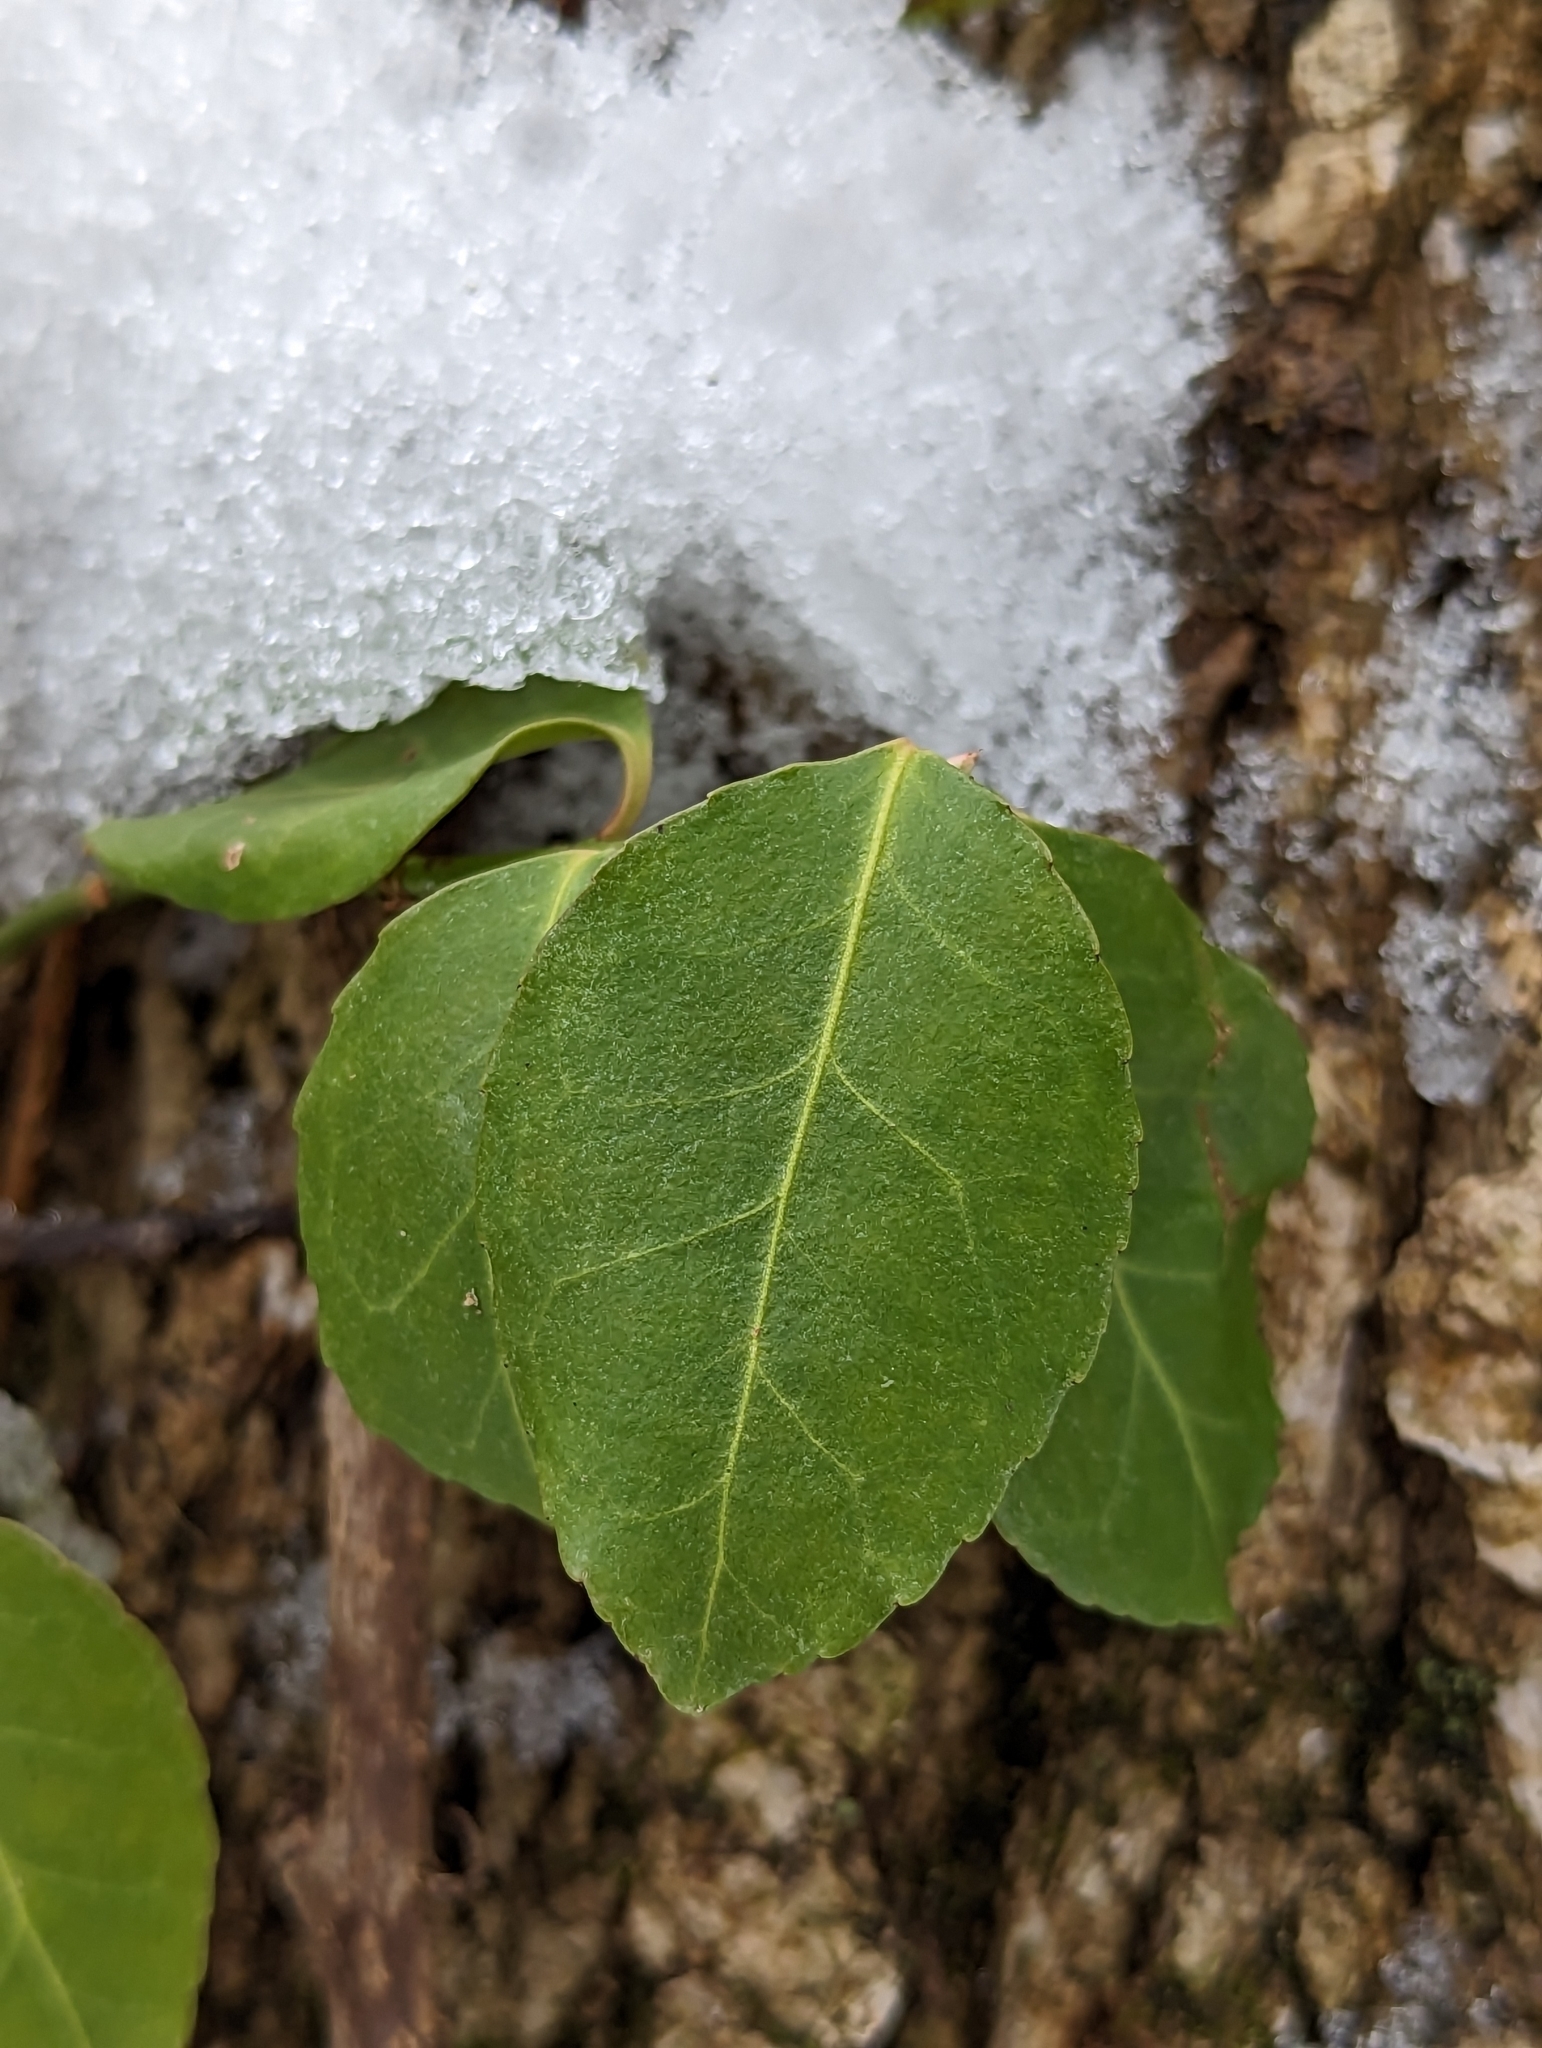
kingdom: Plantae
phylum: Tracheophyta
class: Magnoliopsida
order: Celastrales
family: Celastraceae
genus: Euonymus
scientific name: Euonymus fortunei
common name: Climbing euonymus
